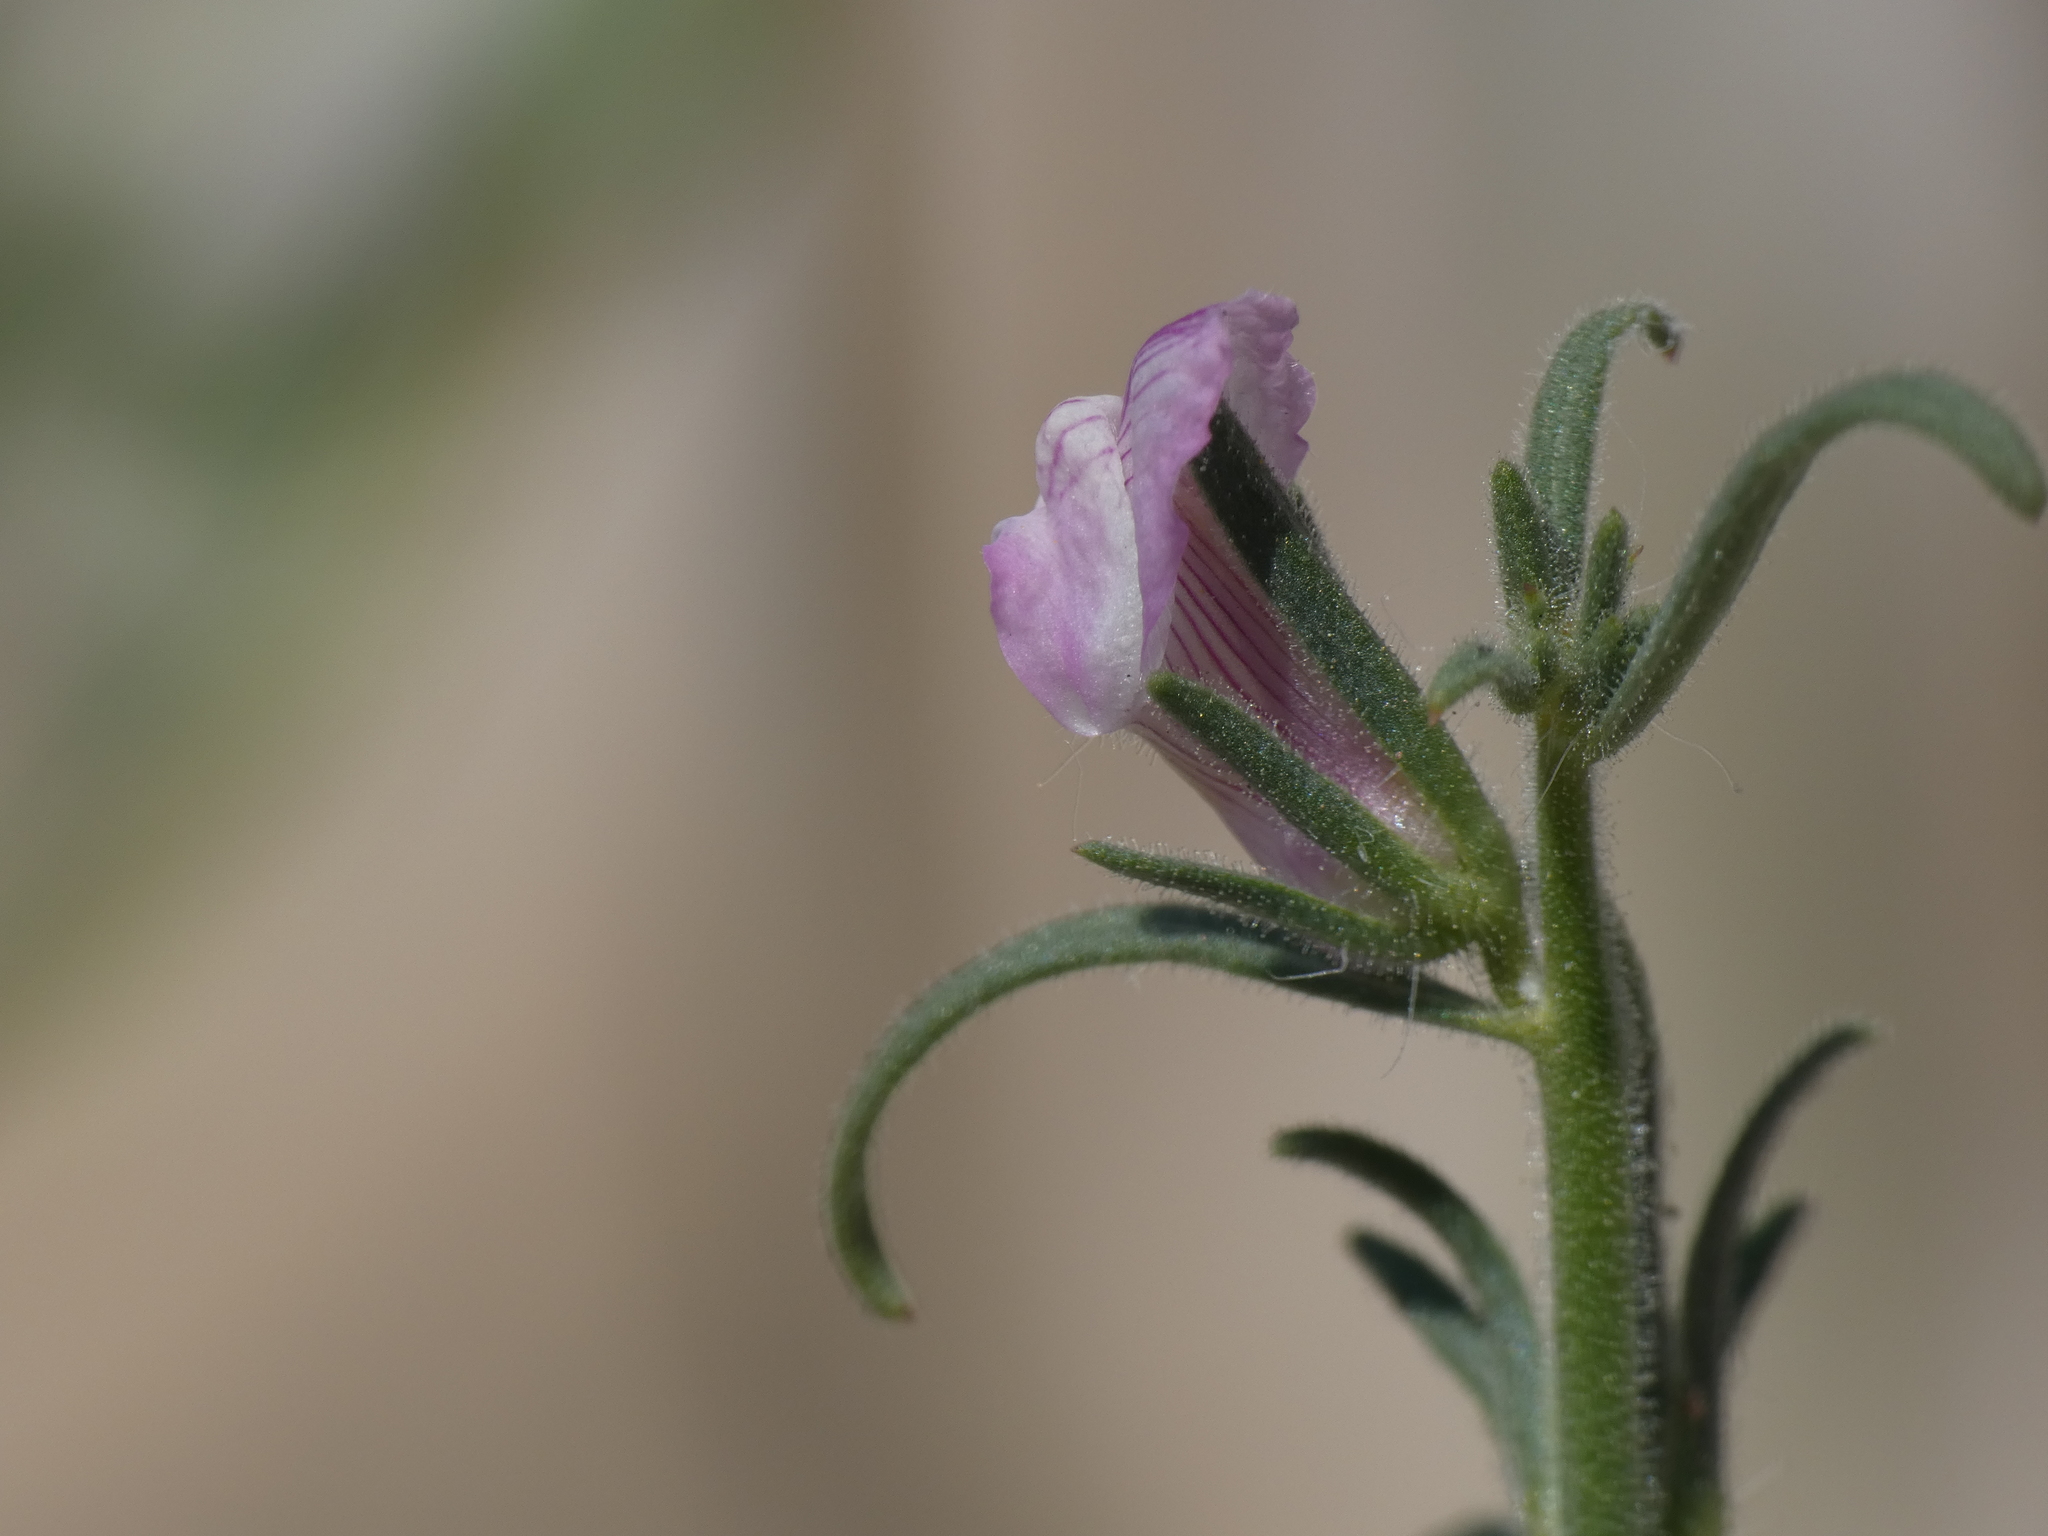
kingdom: Plantae
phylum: Tracheophyta
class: Magnoliopsida
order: Lamiales
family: Plantaginaceae
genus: Misopates
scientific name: Misopates orontium
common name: Weasel's-snout
